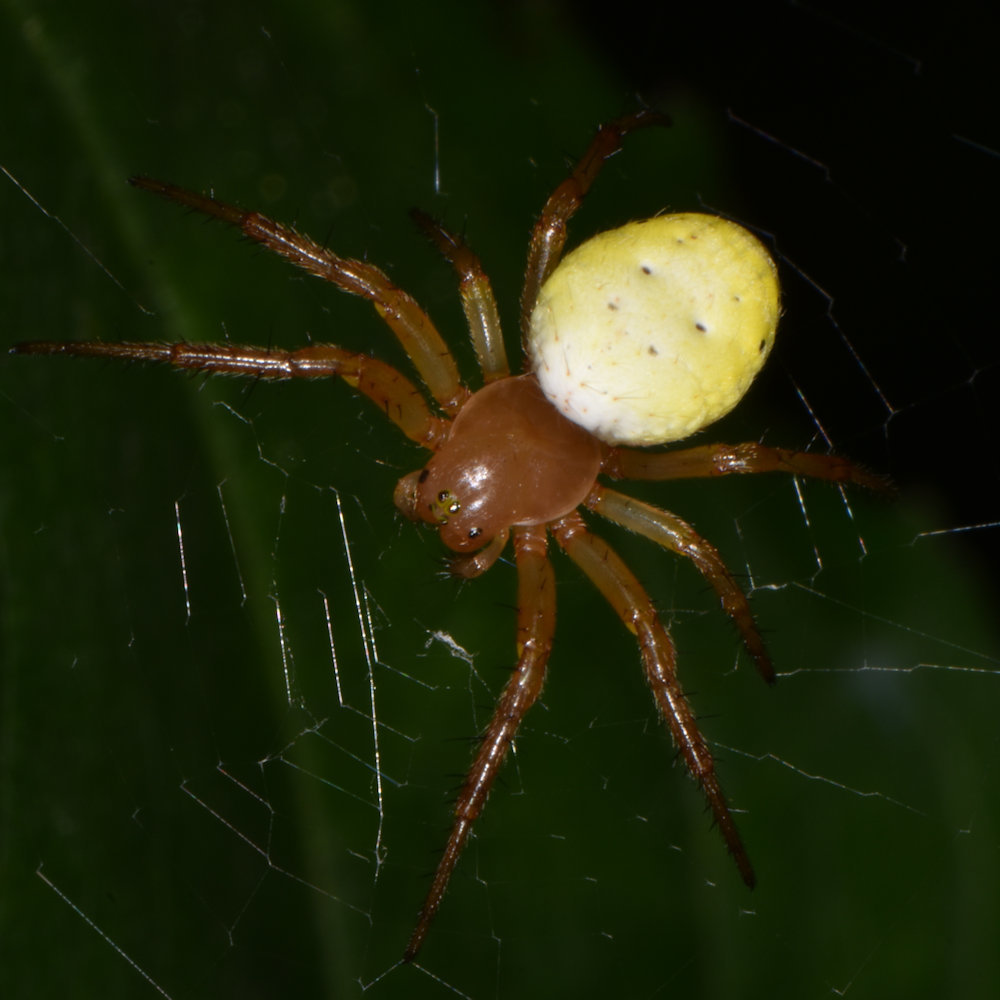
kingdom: Animalia
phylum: Arthropoda
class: Arachnida
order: Araneae
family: Araneidae
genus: Araniella
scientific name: Araniella displicata
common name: Sixspotted orb weaver
